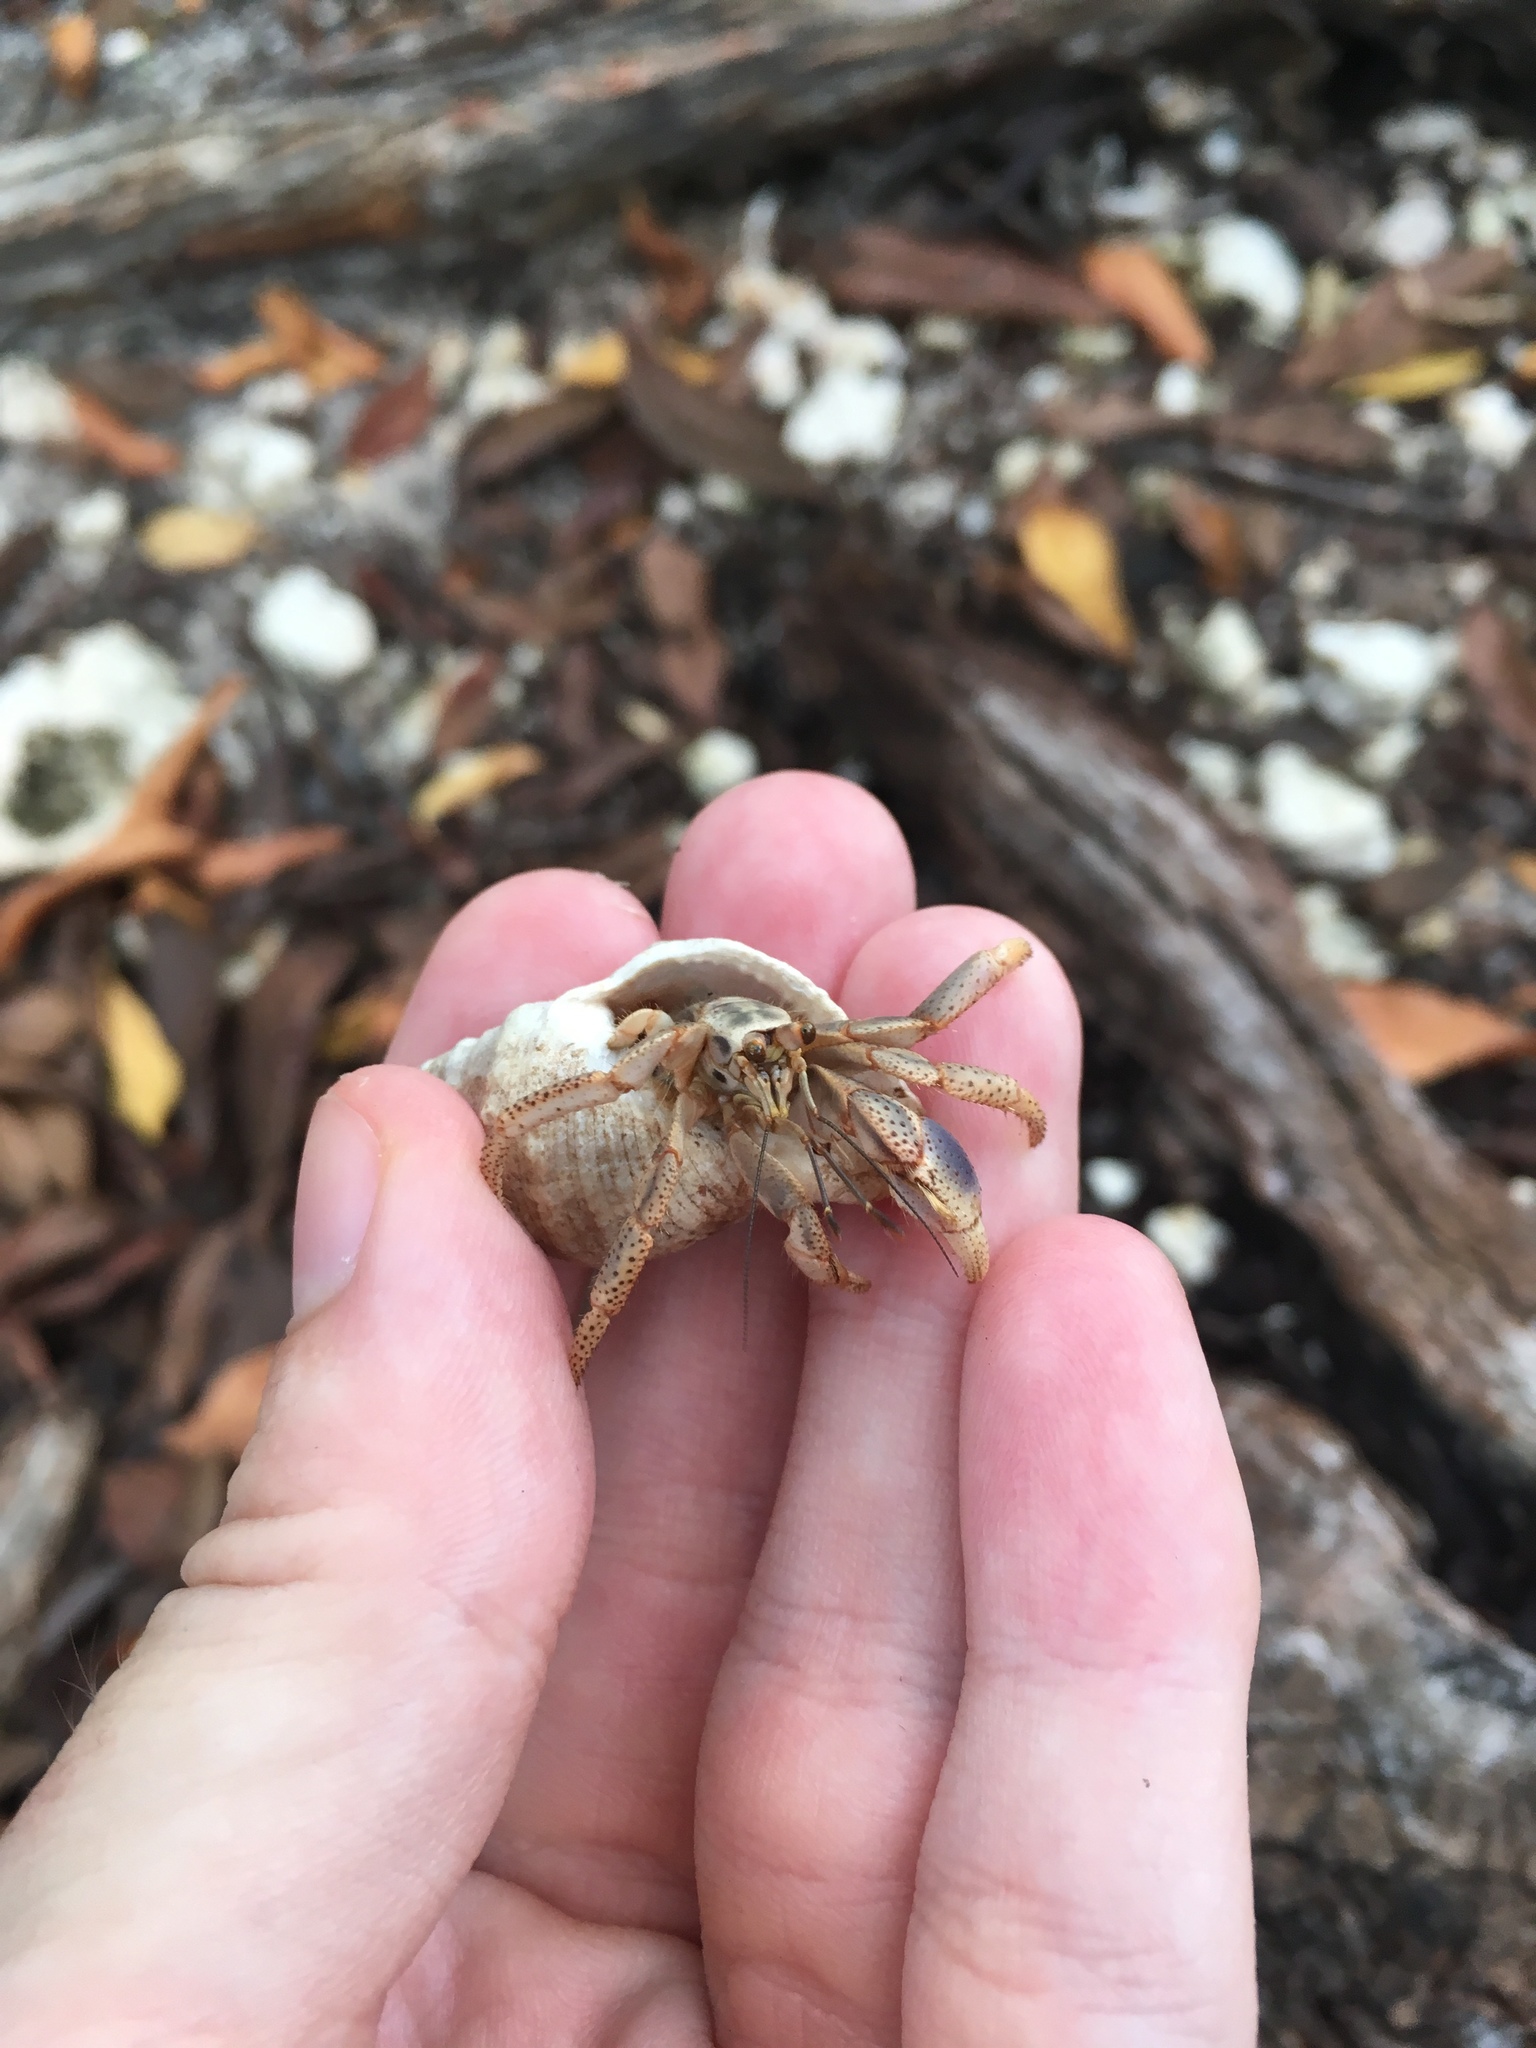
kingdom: Animalia
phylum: Arthropoda
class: Malacostraca
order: Decapoda
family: Coenobitidae
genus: Coenobita
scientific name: Coenobita clypeatus
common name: Caribbean hermit crab
